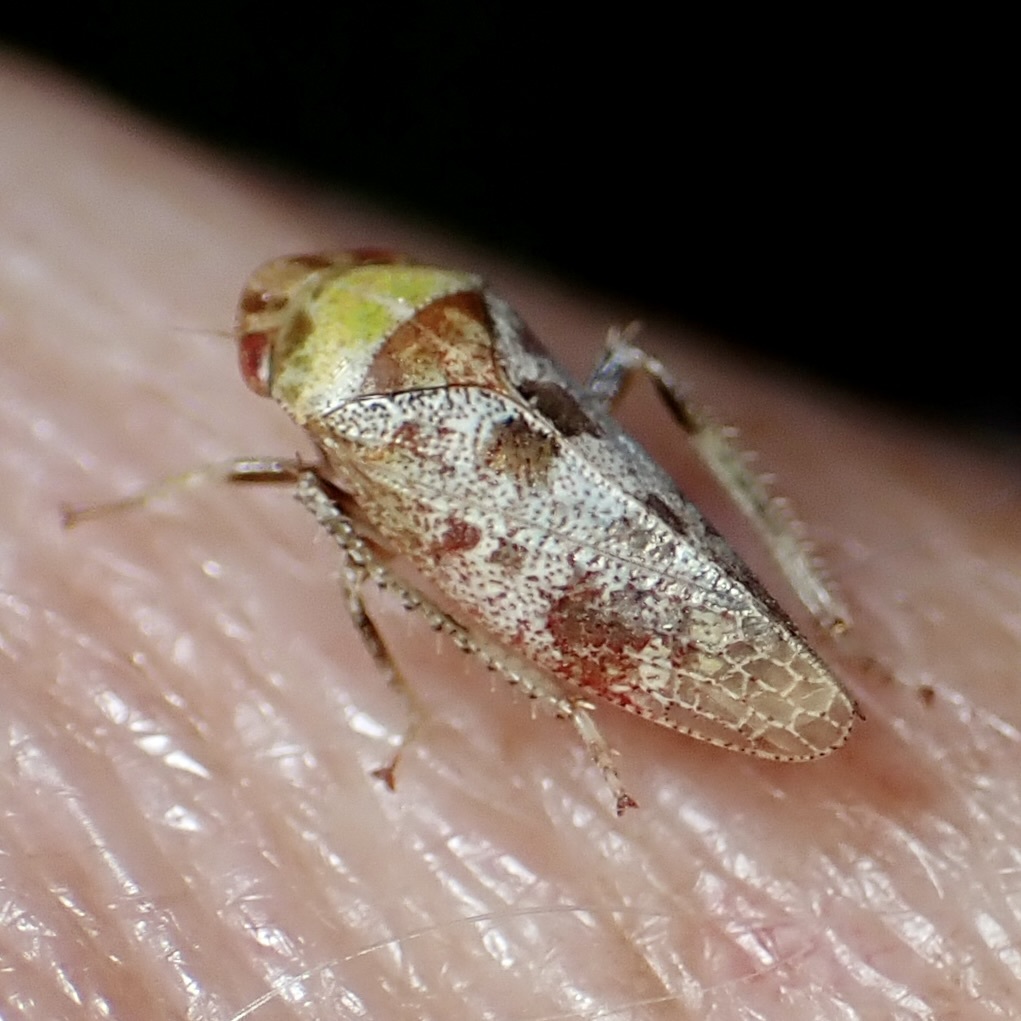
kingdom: Animalia
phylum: Arthropoda
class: Insecta
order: Hemiptera
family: Cicadellidae
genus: Dragonana
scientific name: Dragonana dracontea
